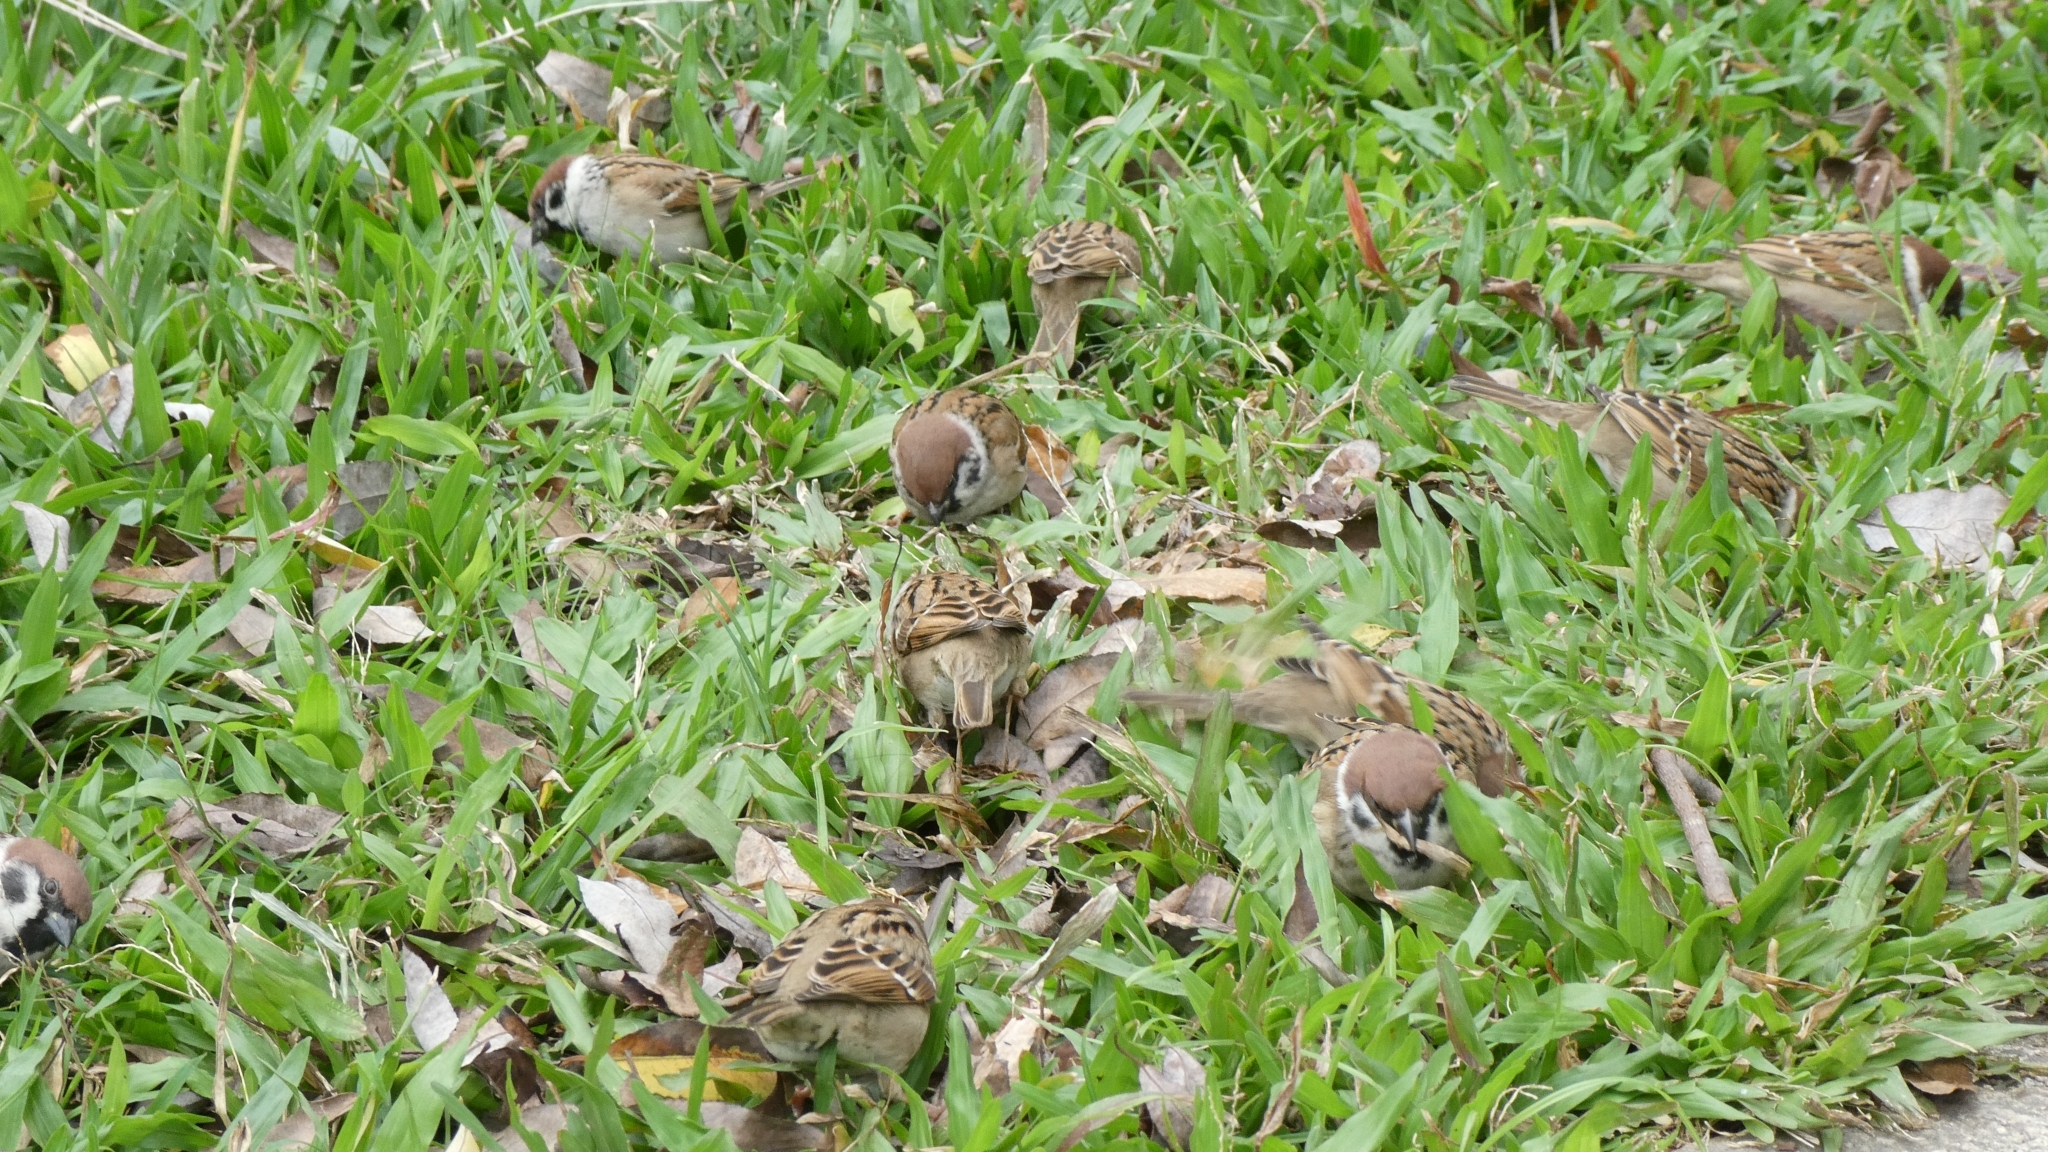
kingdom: Animalia
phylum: Chordata
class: Aves
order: Passeriformes
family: Passeridae
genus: Passer
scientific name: Passer montanus
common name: Eurasian tree sparrow
